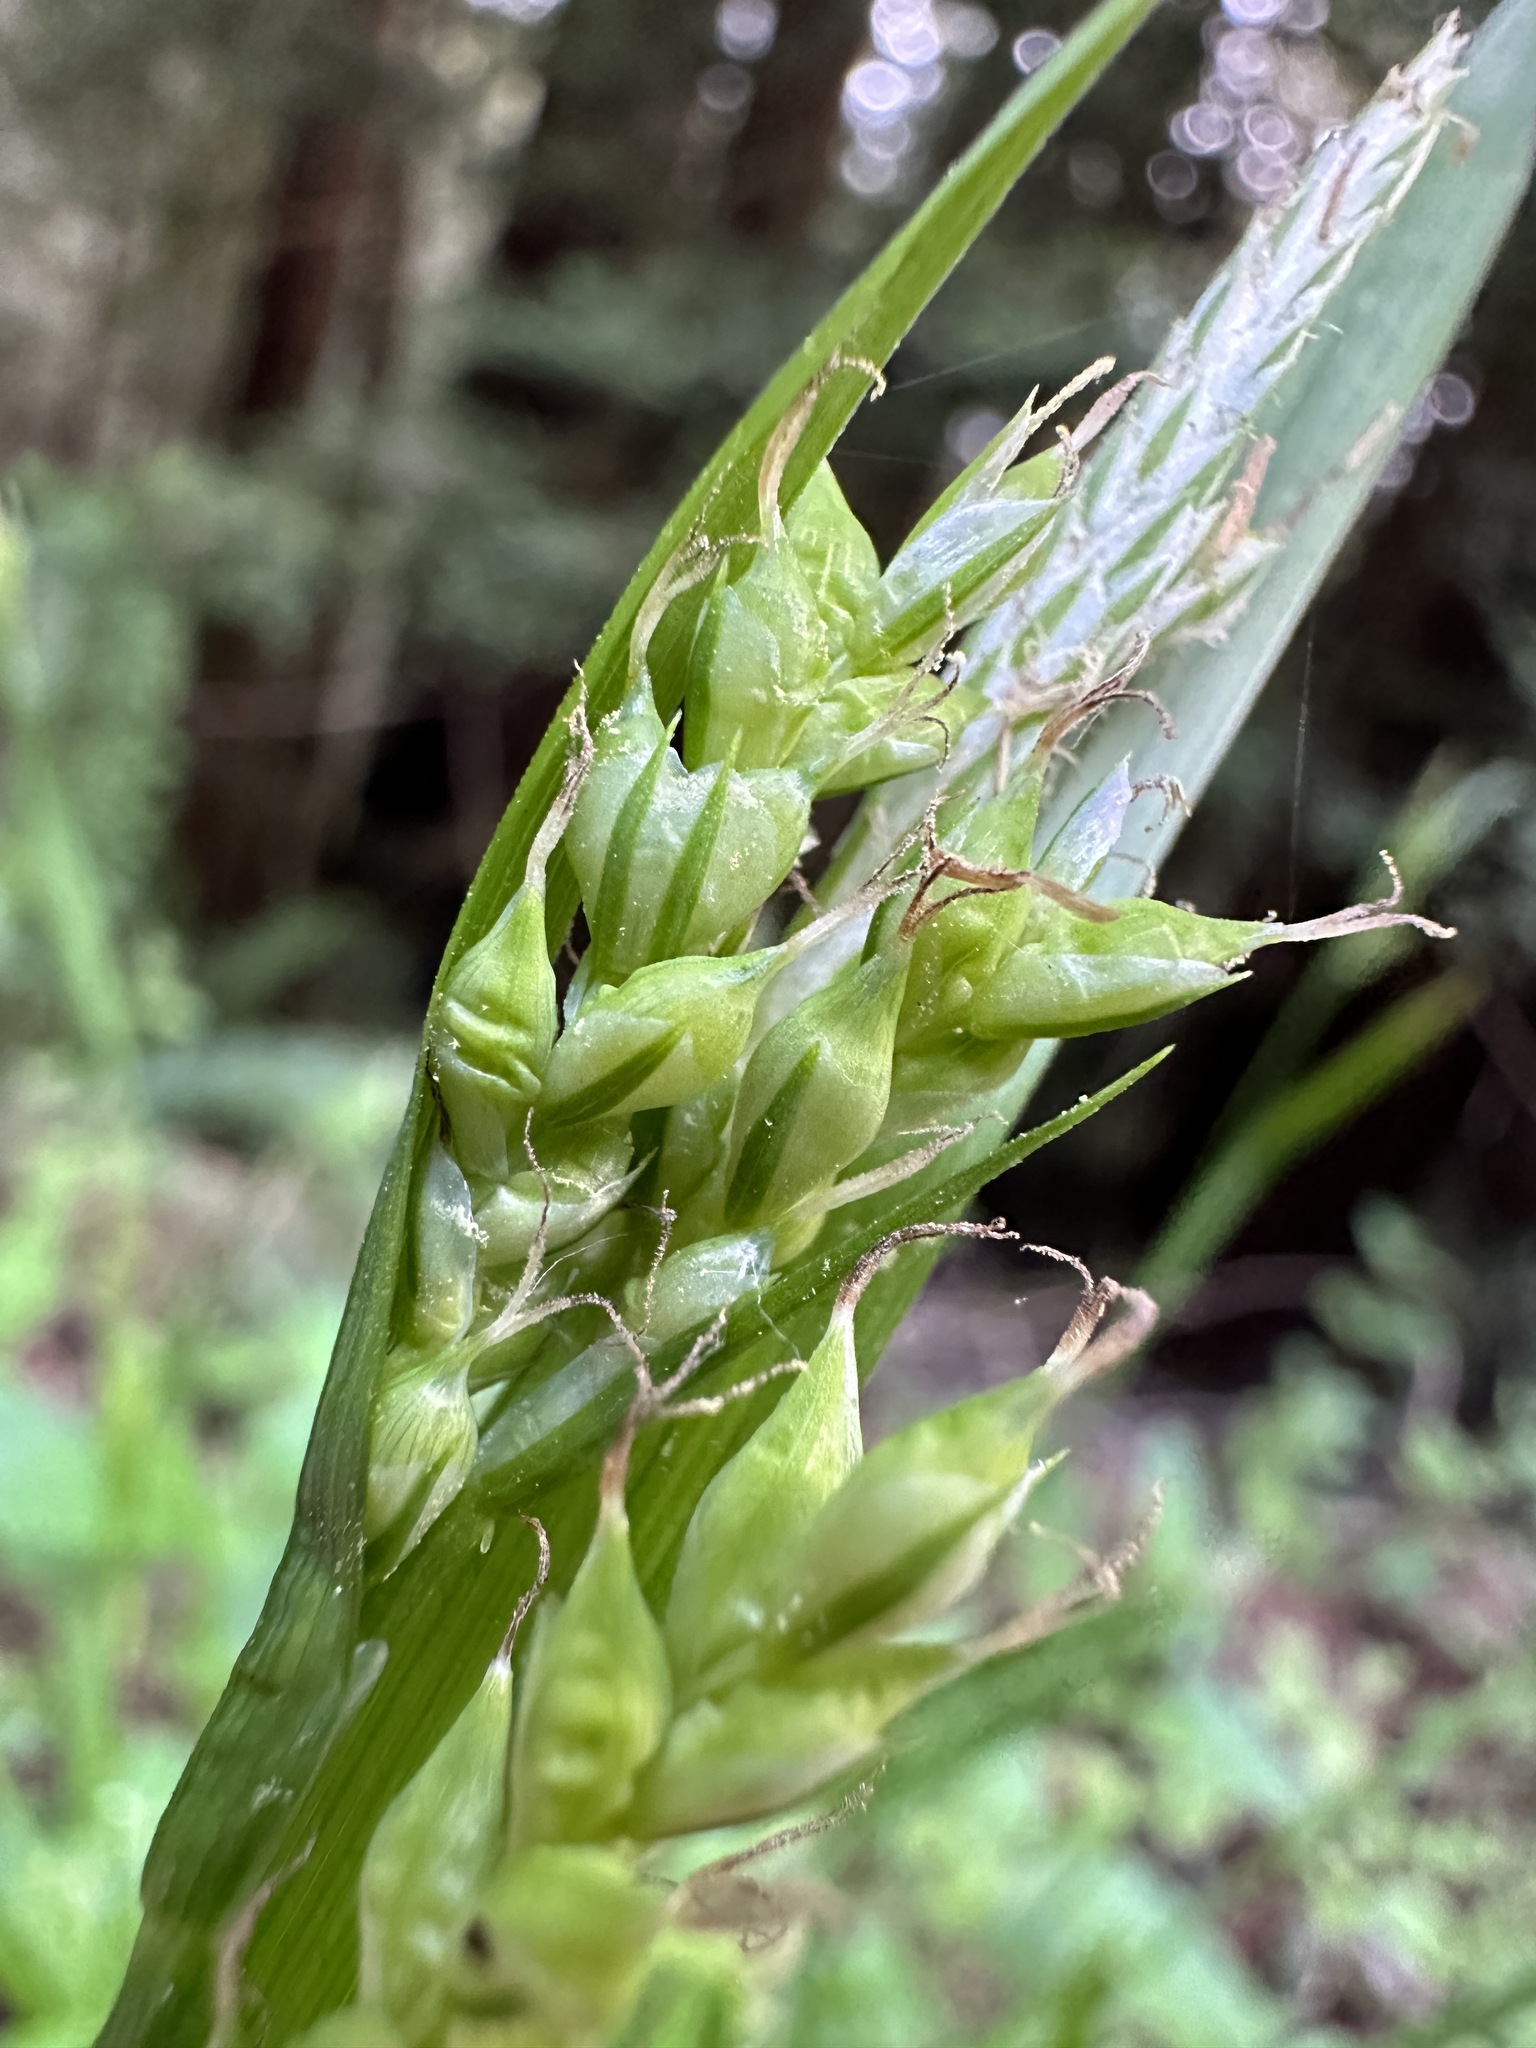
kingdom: Plantae
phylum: Tracheophyta
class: Liliopsida
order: Poales
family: Cyperaceae
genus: Carex
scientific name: Carex hendersonii
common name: Henderson's sedge
